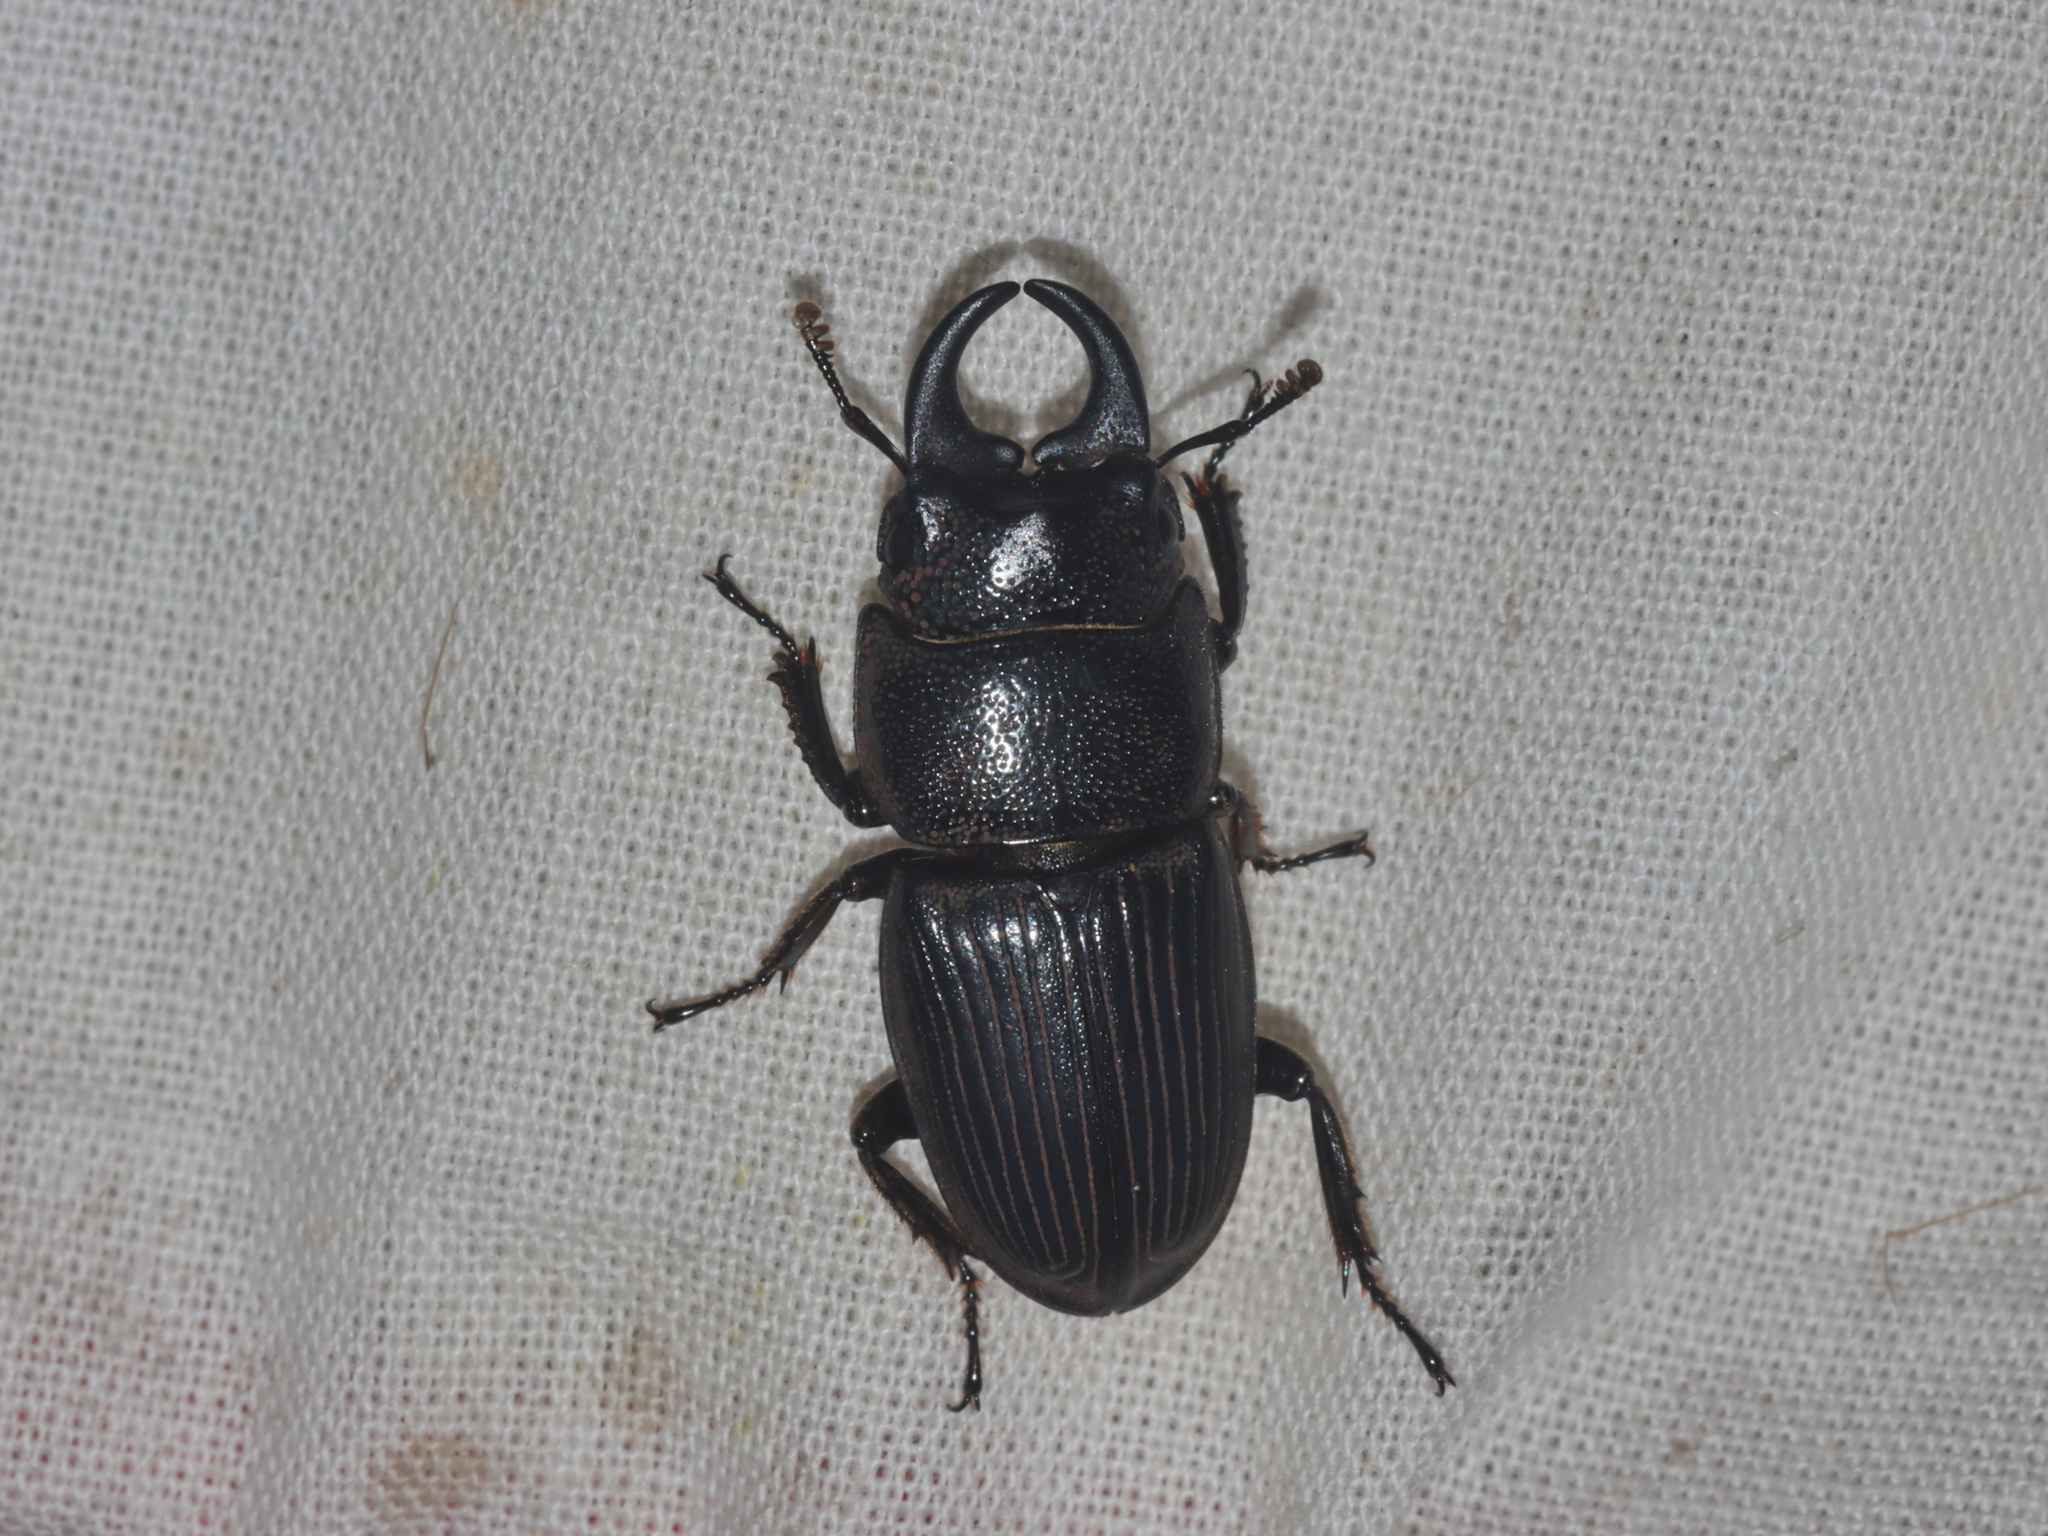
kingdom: Animalia
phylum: Arthropoda
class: Insecta
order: Coleoptera
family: Lucanidae
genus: Aegus
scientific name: Aegus chelifer
